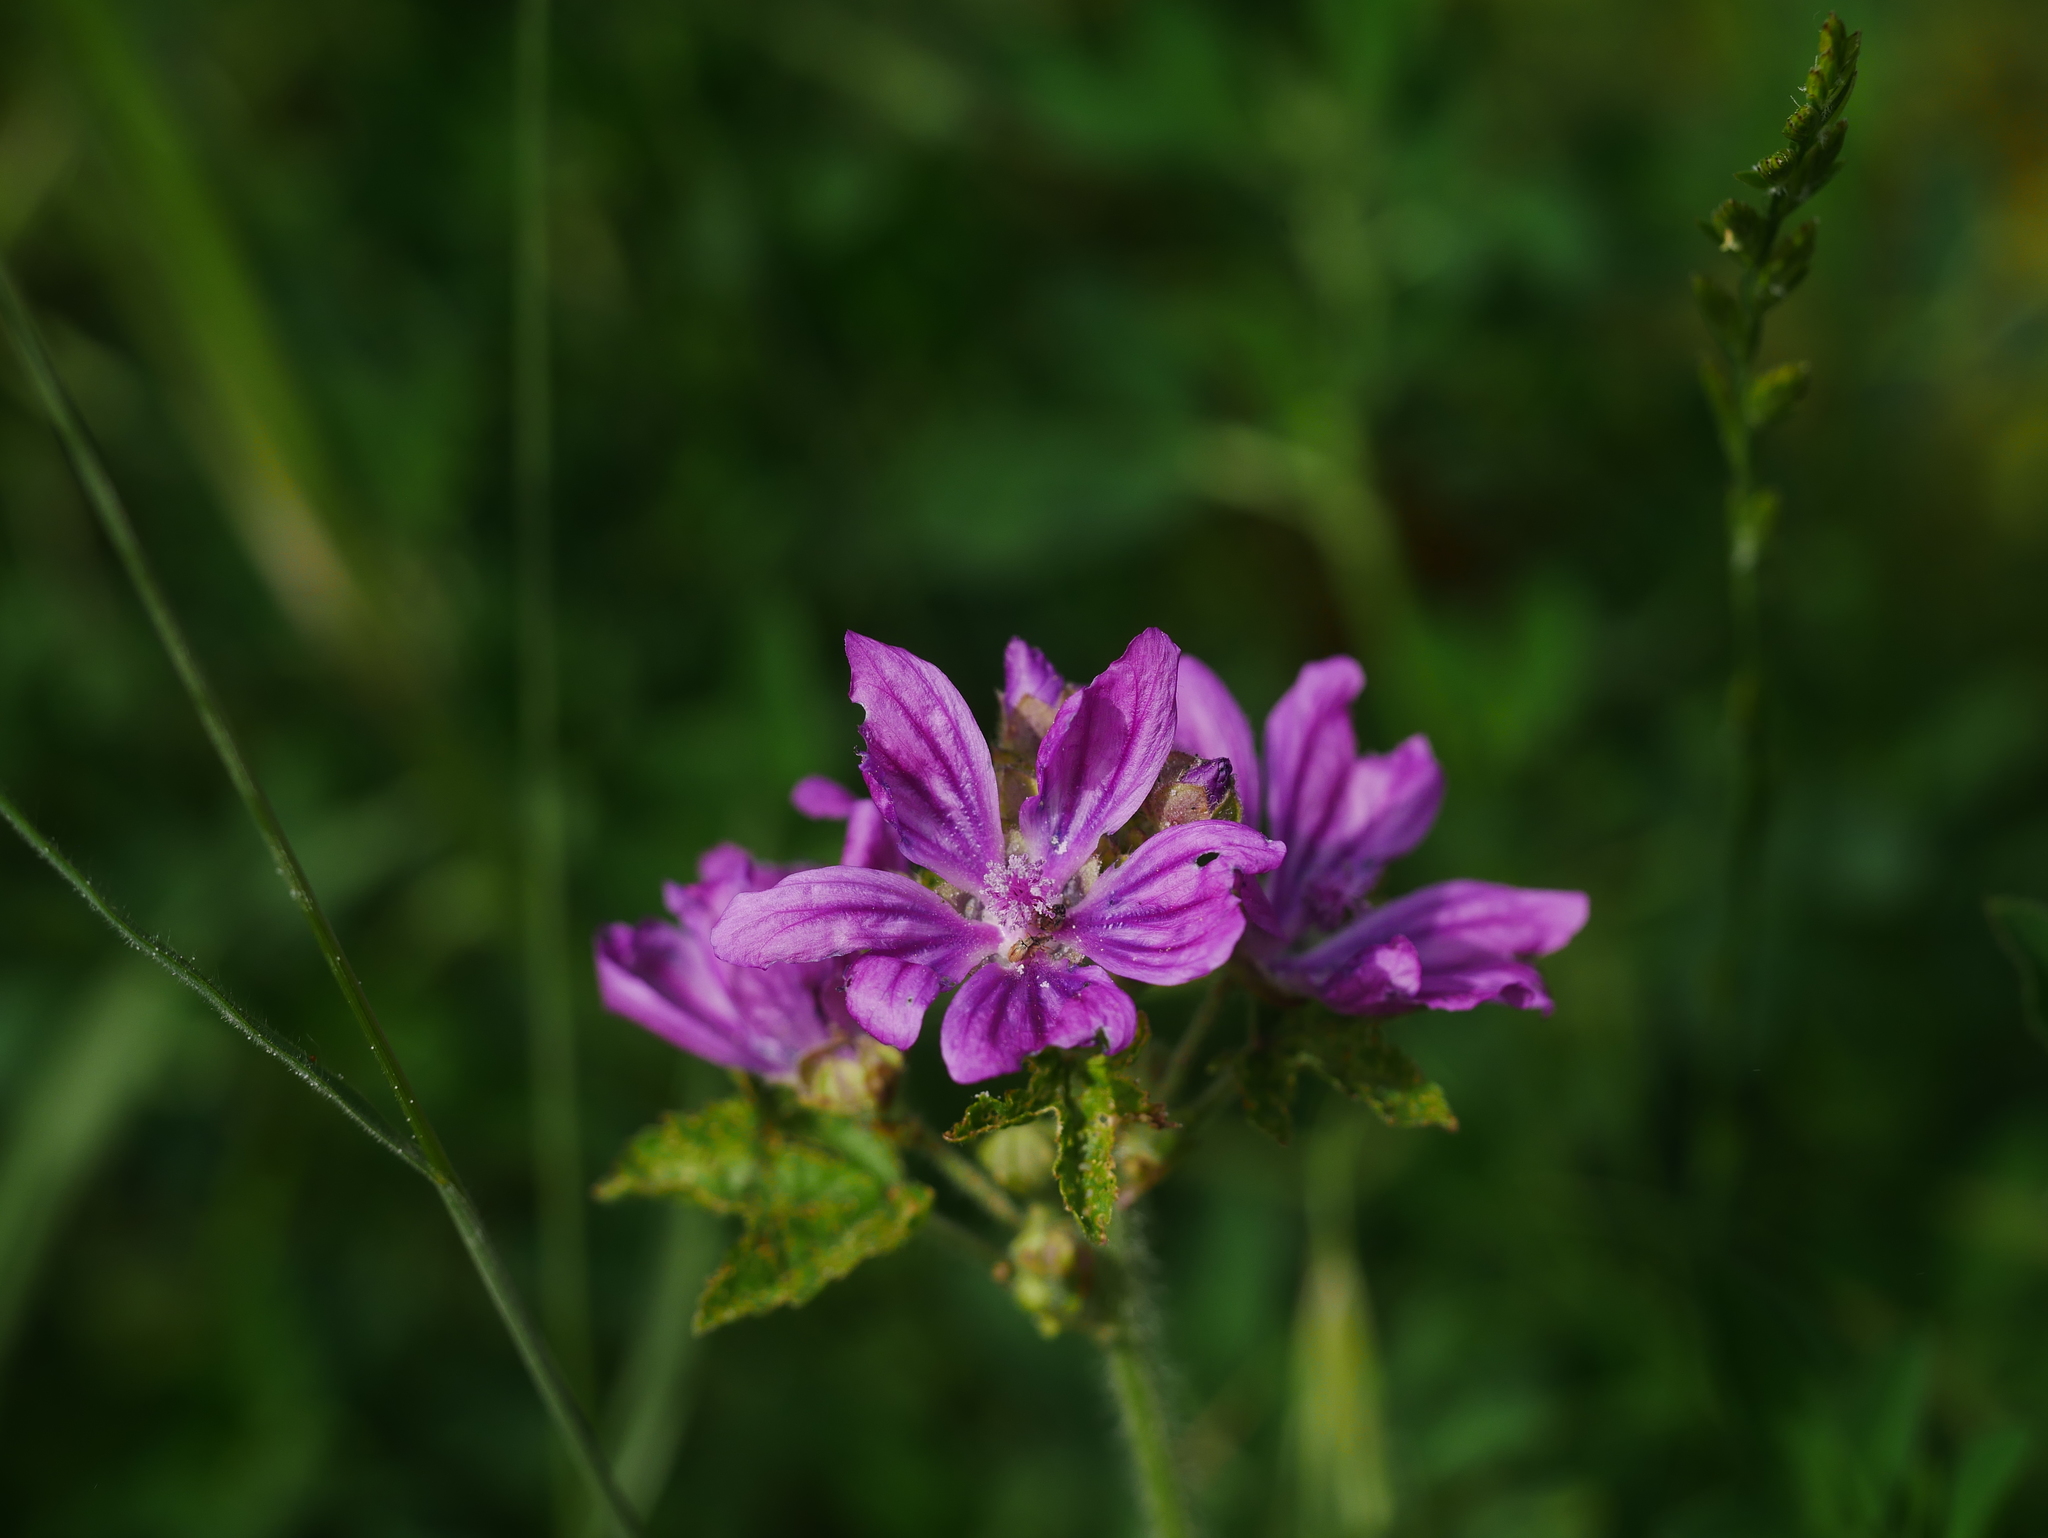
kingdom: Plantae
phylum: Tracheophyta
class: Magnoliopsida
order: Malvales
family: Malvaceae
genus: Malva
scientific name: Malva sylvestris
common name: Common mallow
